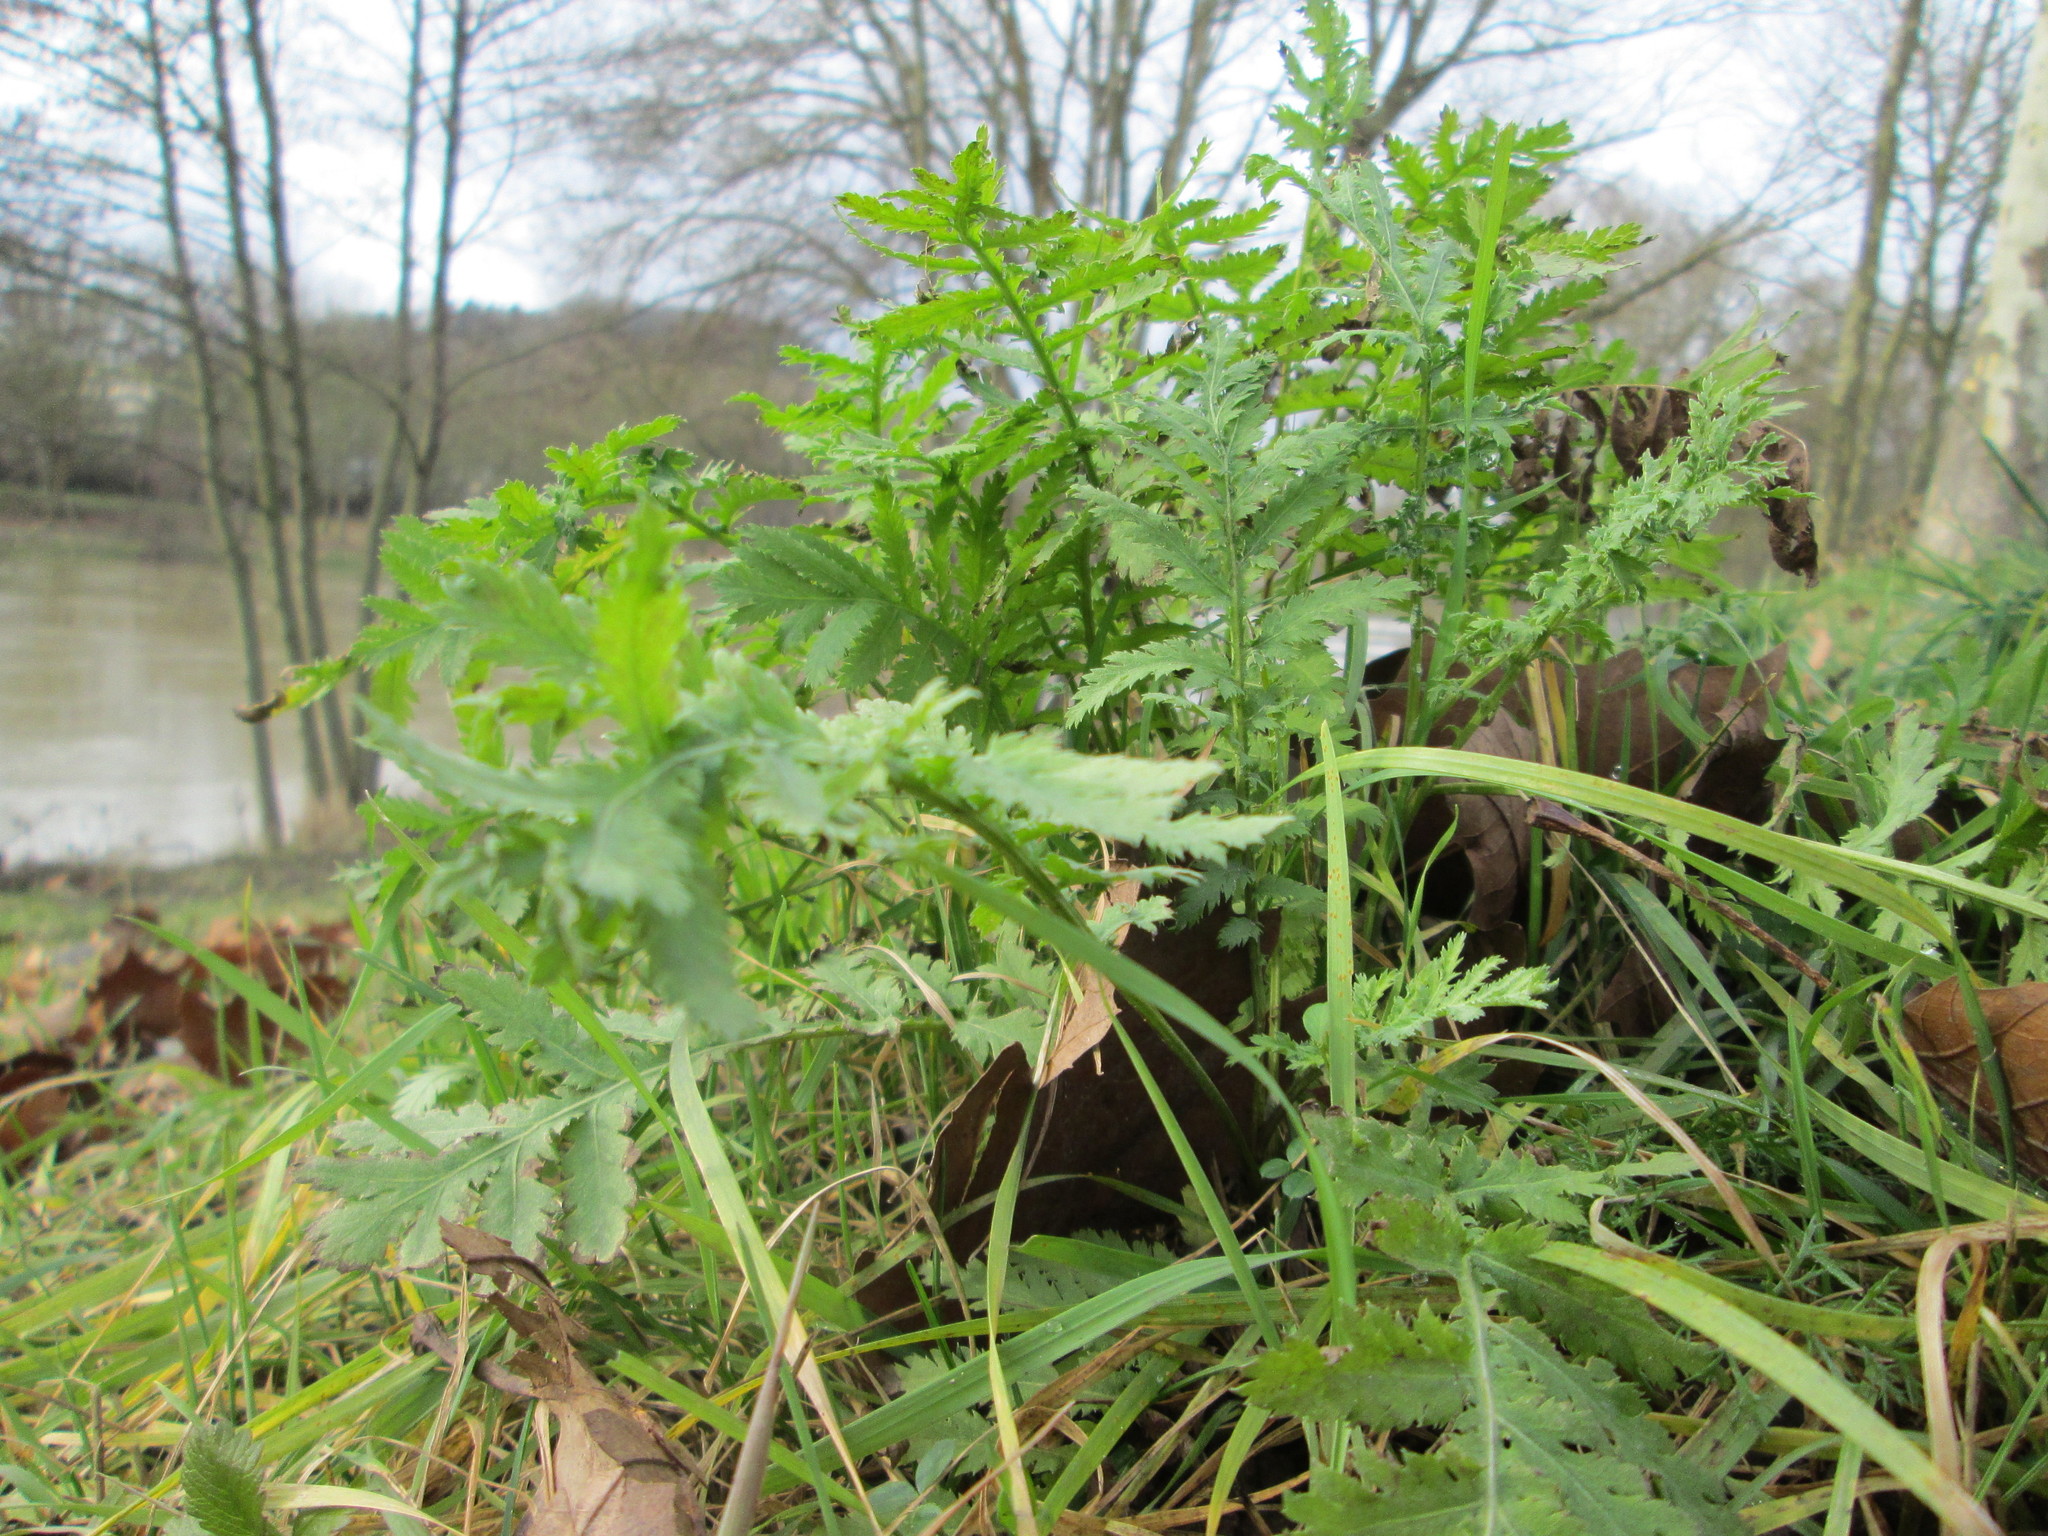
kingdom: Plantae
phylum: Tracheophyta
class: Magnoliopsida
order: Asterales
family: Asteraceae
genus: Tanacetum
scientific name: Tanacetum vulgare
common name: Common tansy
